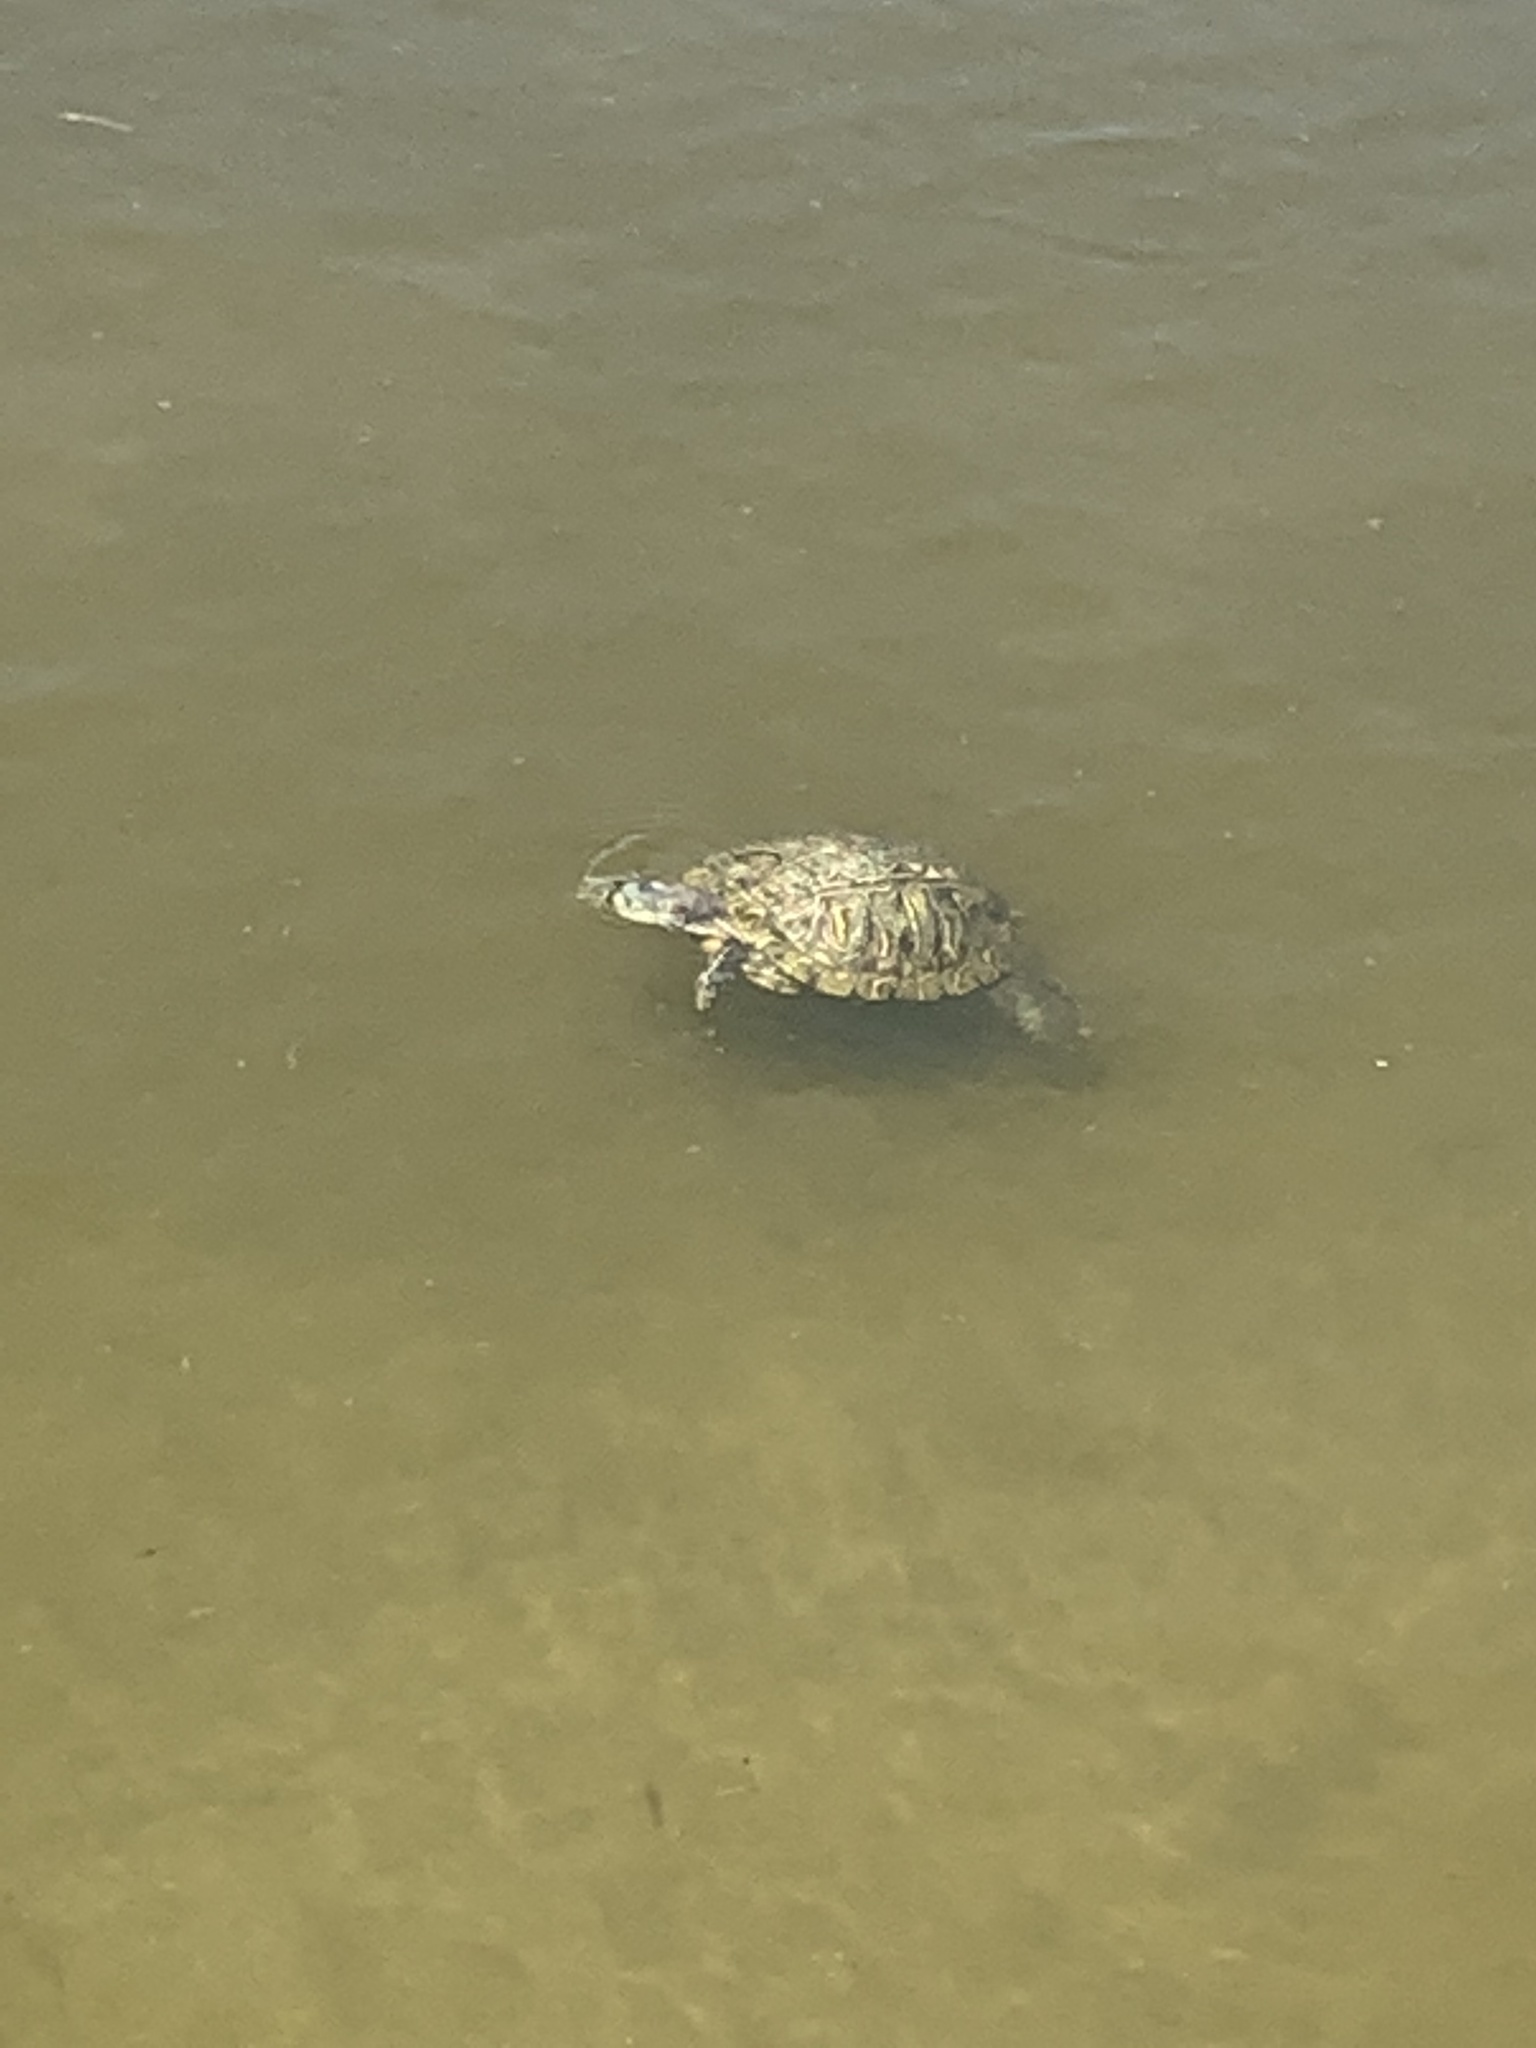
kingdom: Animalia
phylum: Chordata
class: Testudines
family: Emydidae
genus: Trachemys
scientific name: Trachemys scripta
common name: Slider
